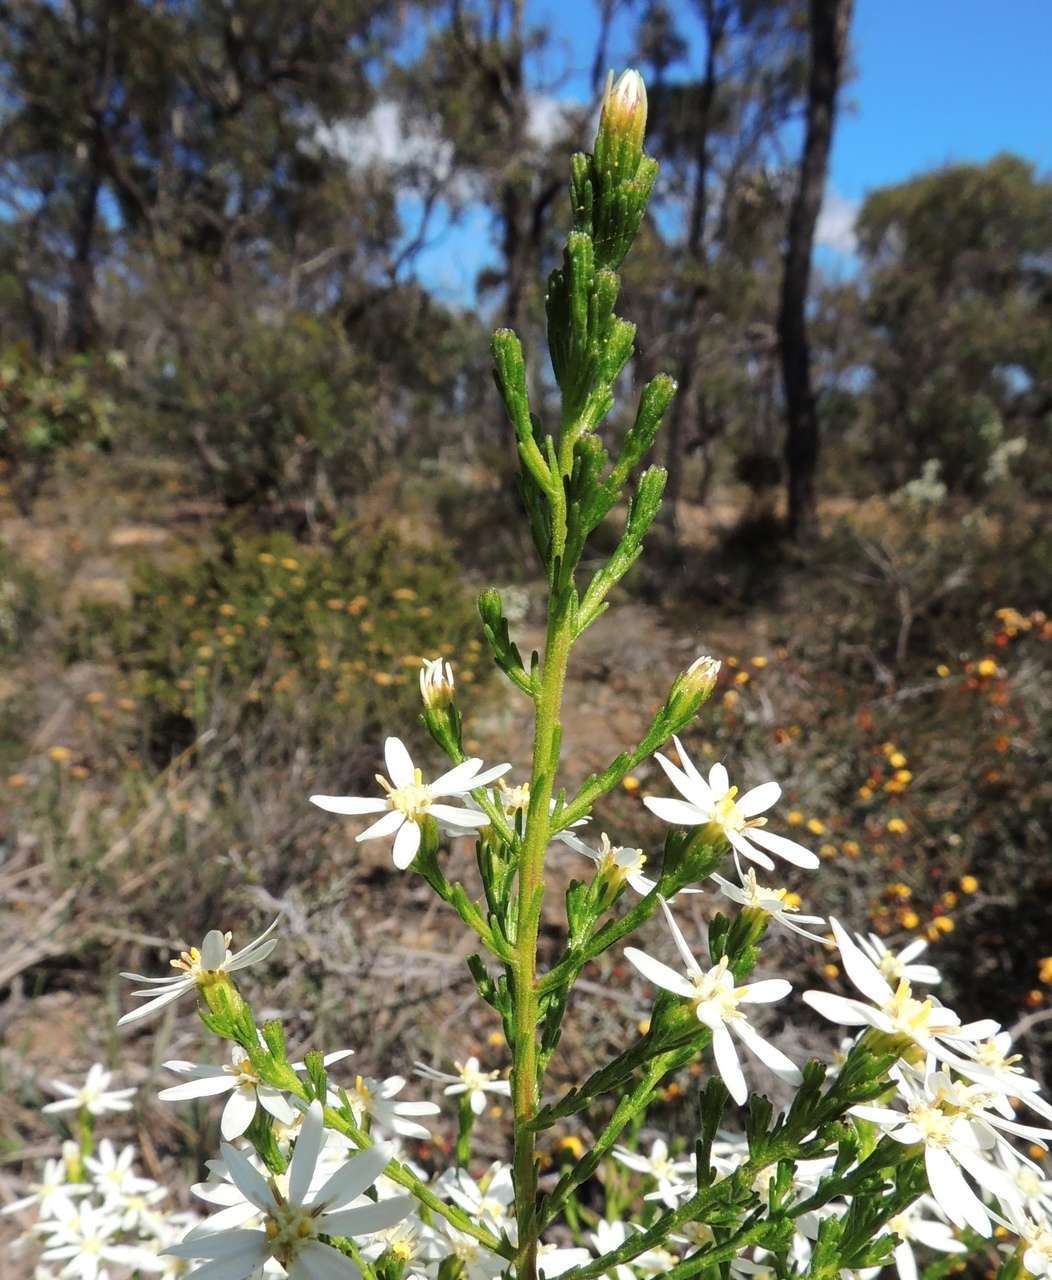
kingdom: Plantae
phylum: Tracheophyta
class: Magnoliopsida
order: Asterales
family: Asteraceae
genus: Olearia
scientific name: Olearia teretifolia
